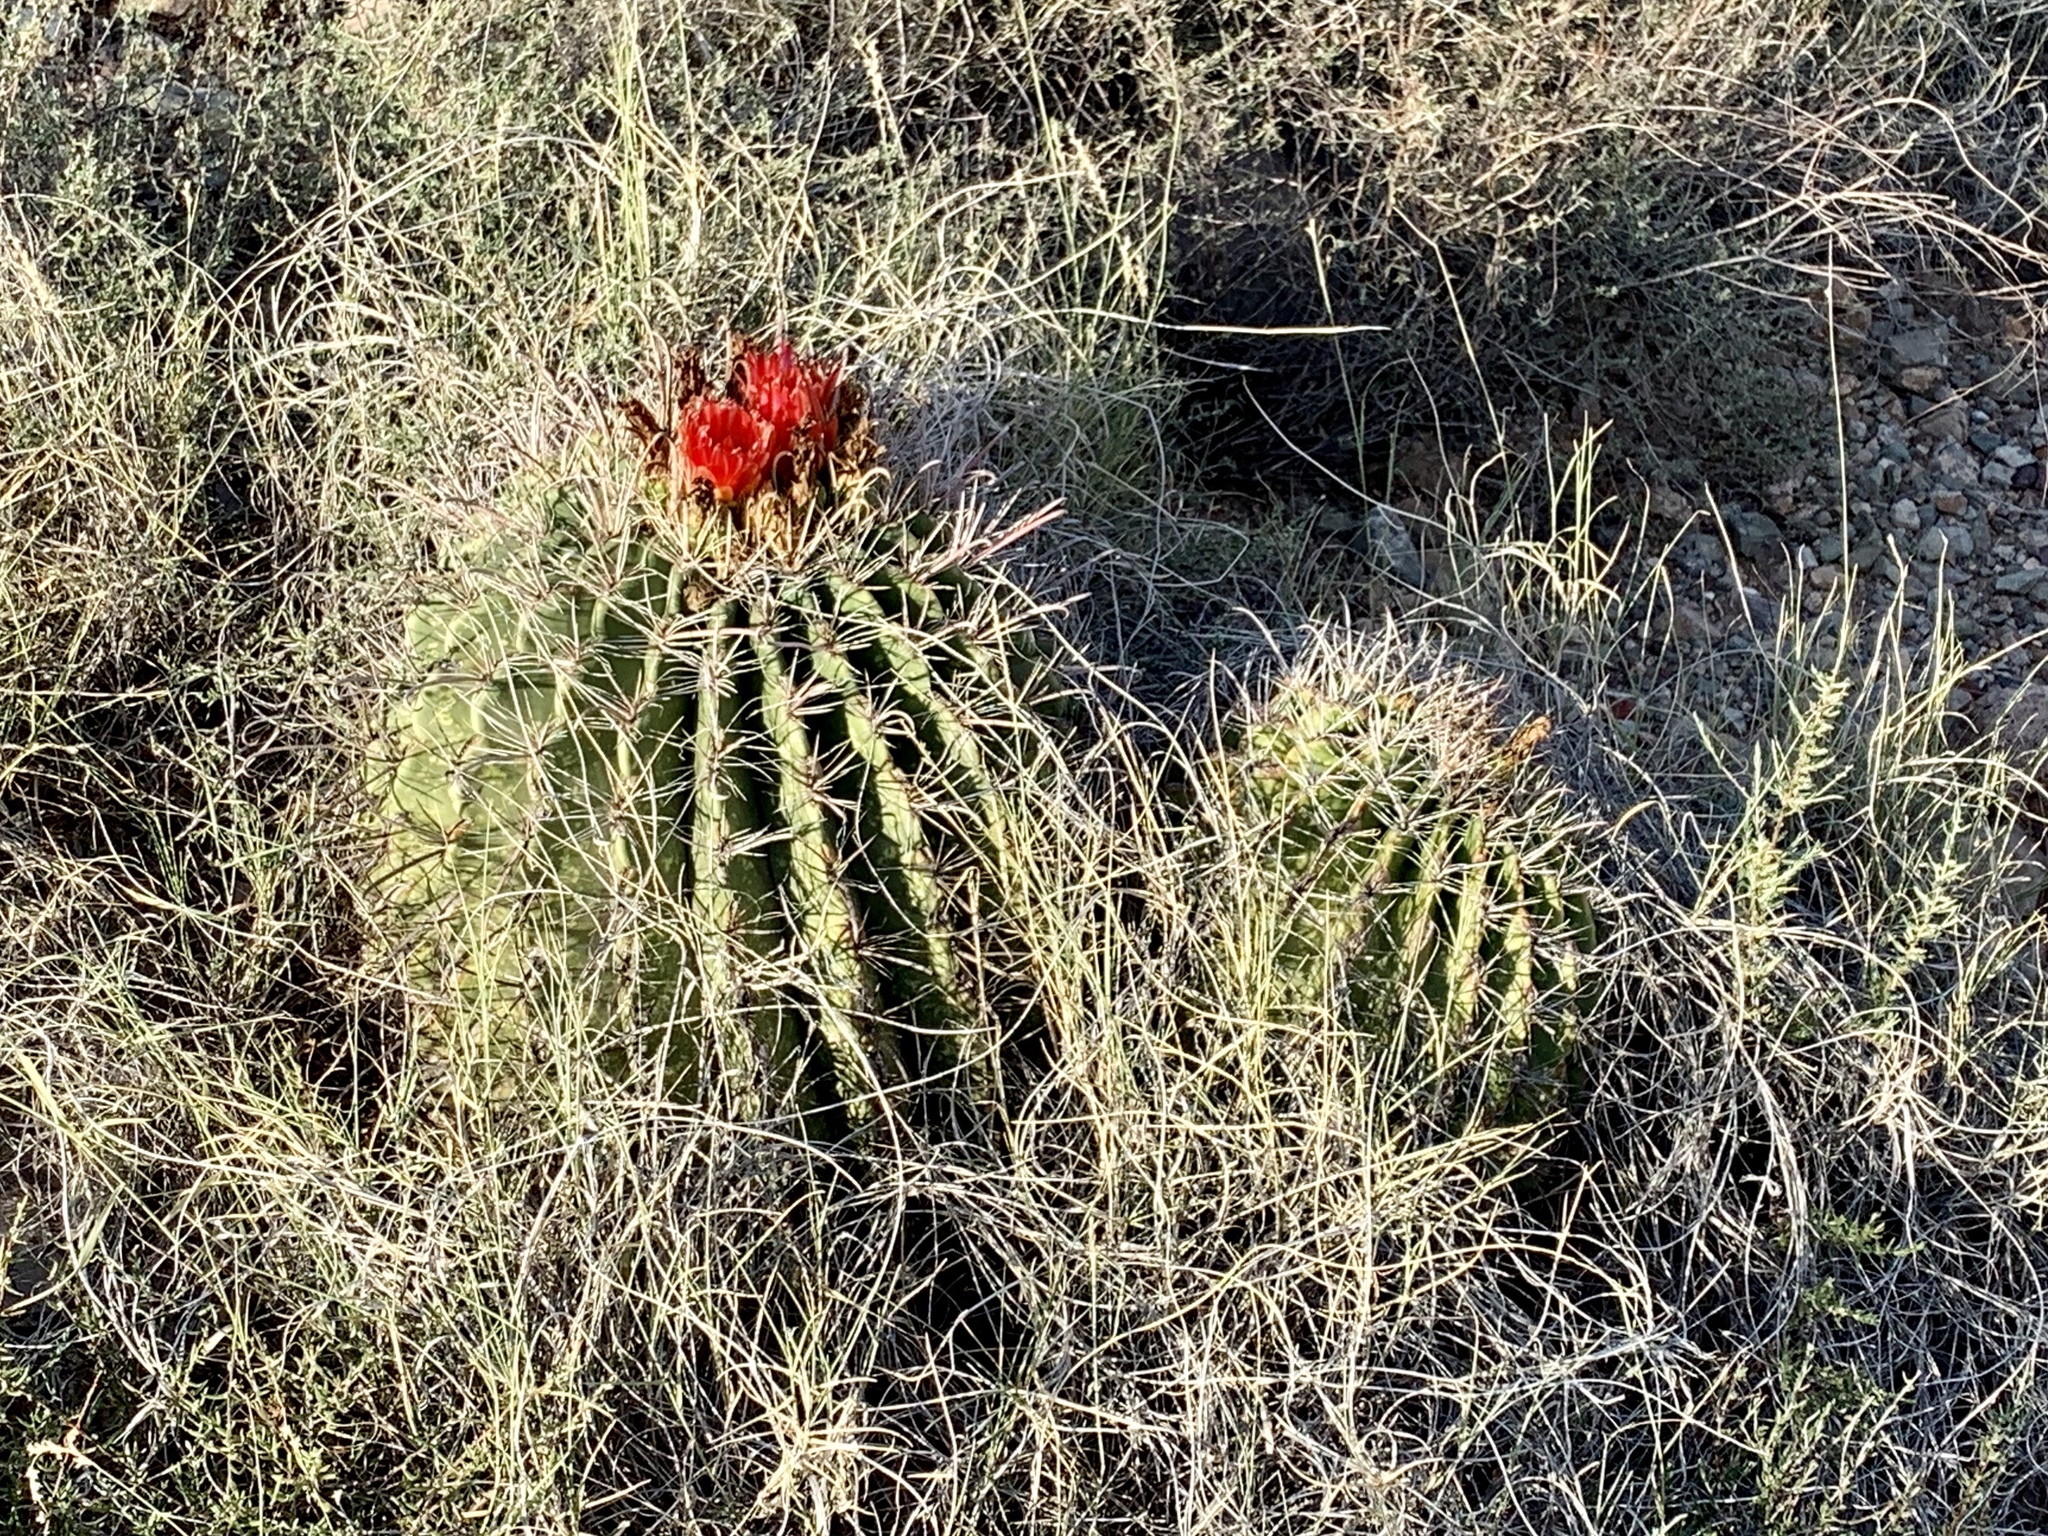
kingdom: Plantae
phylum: Tracheophyta
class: Magnoliopsida
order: Caryophyllales
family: Cactaceae
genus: Ferocactus
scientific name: Ferocactus wislizeni
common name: Candy barrel cactus
